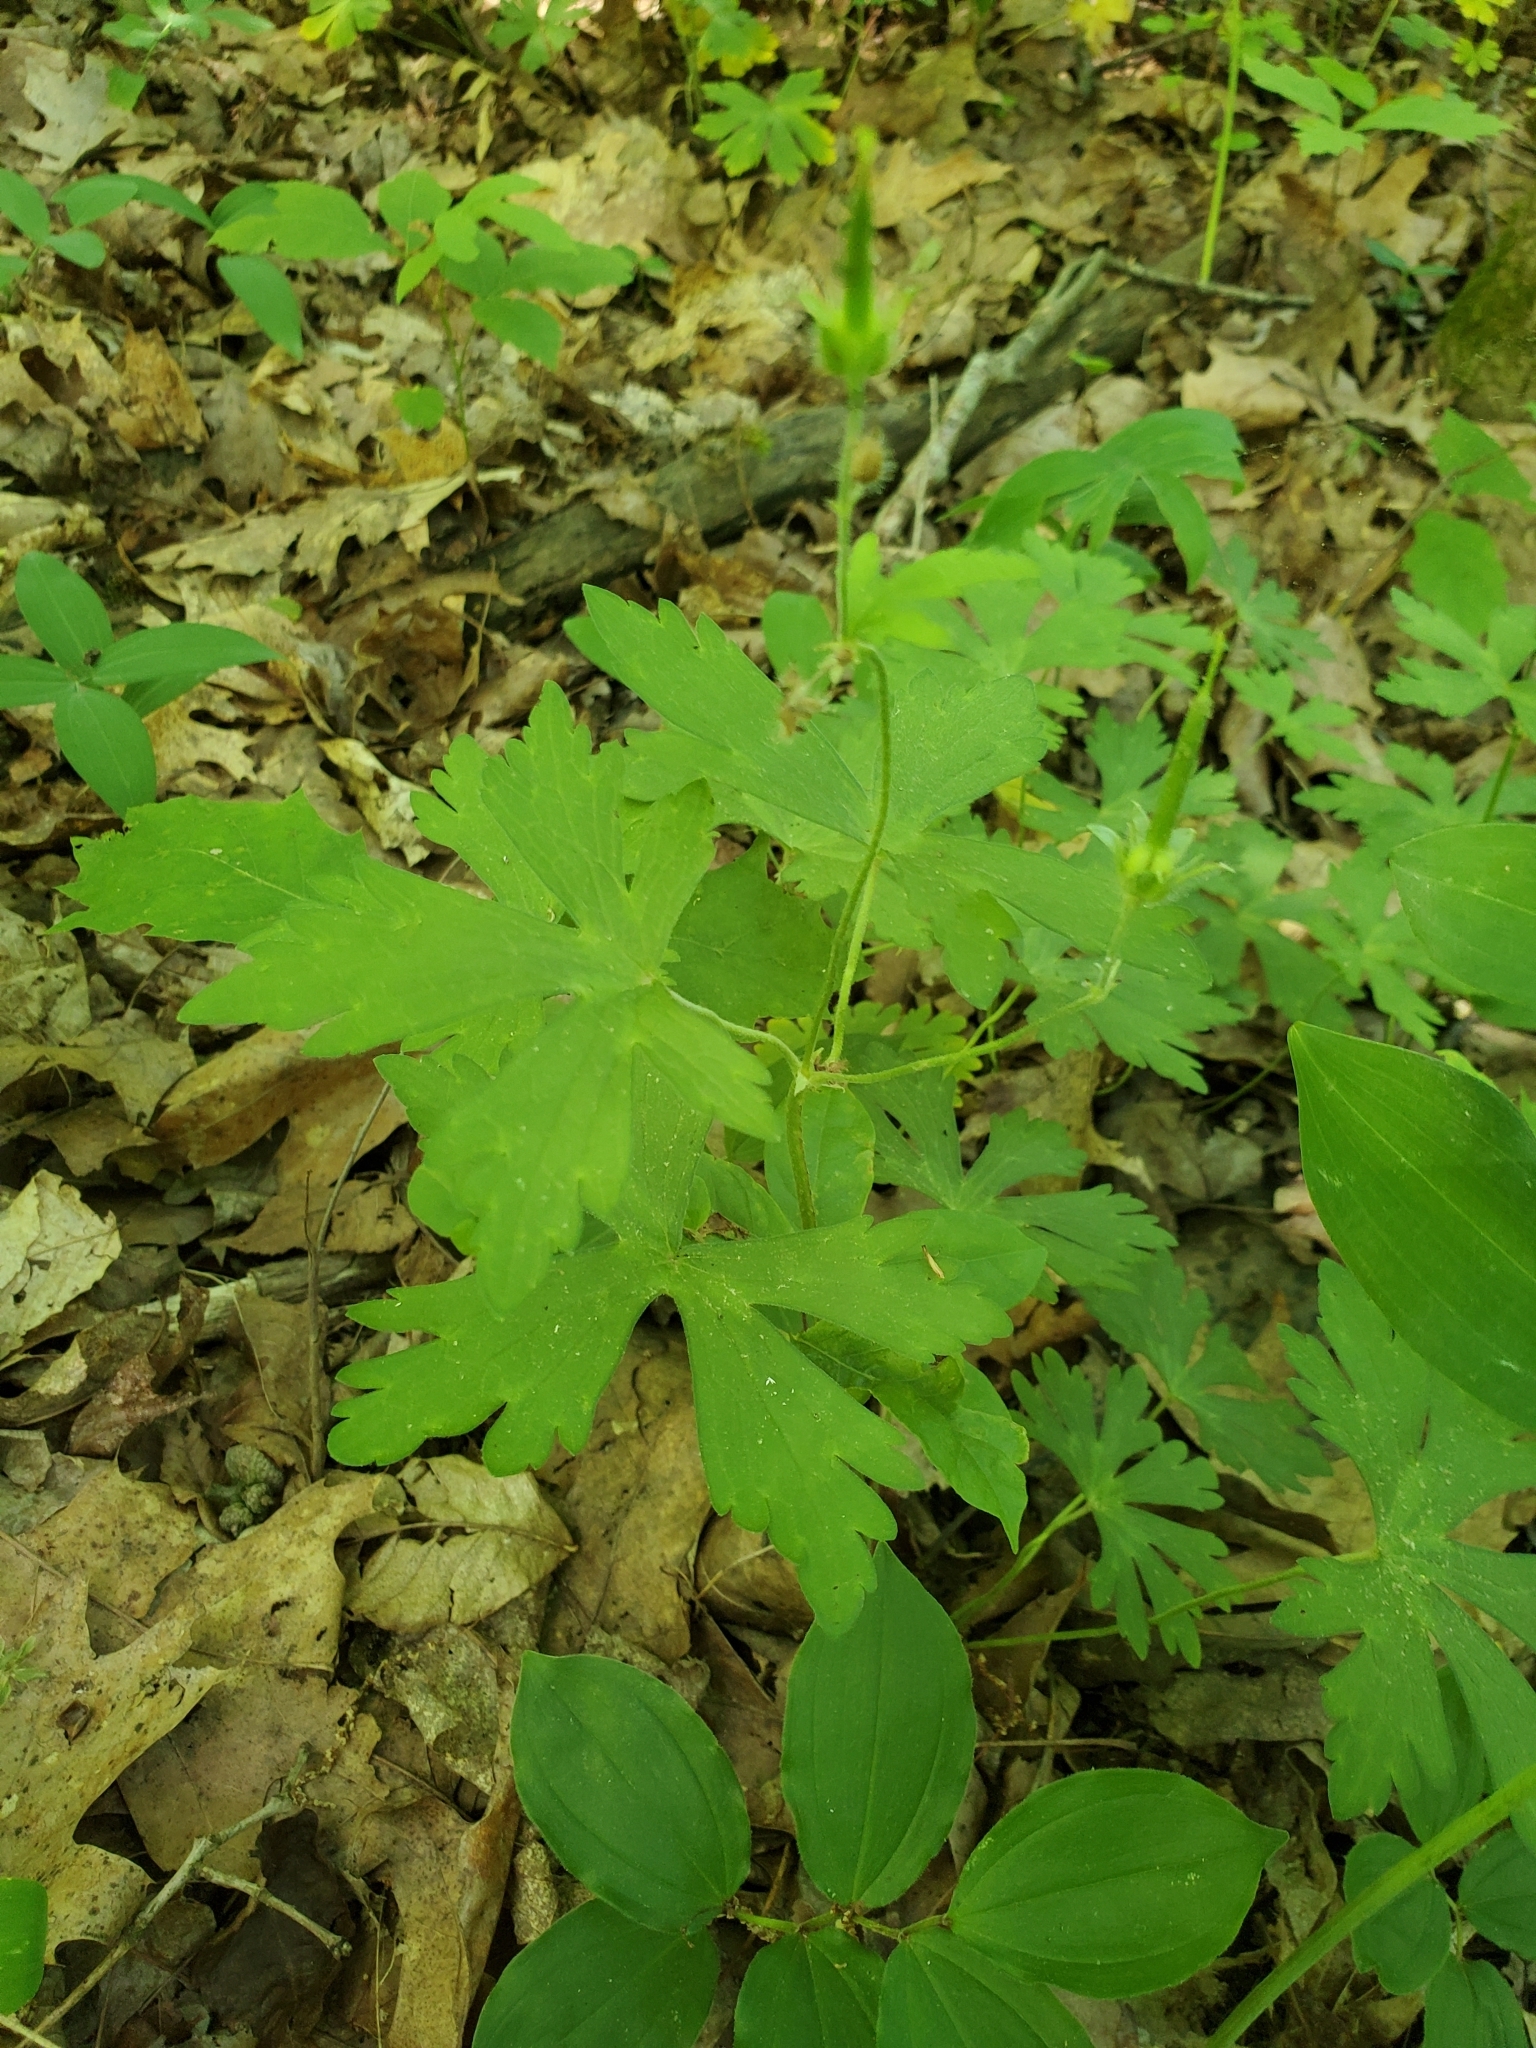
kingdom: Plantae
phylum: Tracheophyta
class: Magnoliopsida
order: Geraniales
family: Geraniaceae
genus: Geranium
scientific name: Geranium maculatum
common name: Spotted geranium
